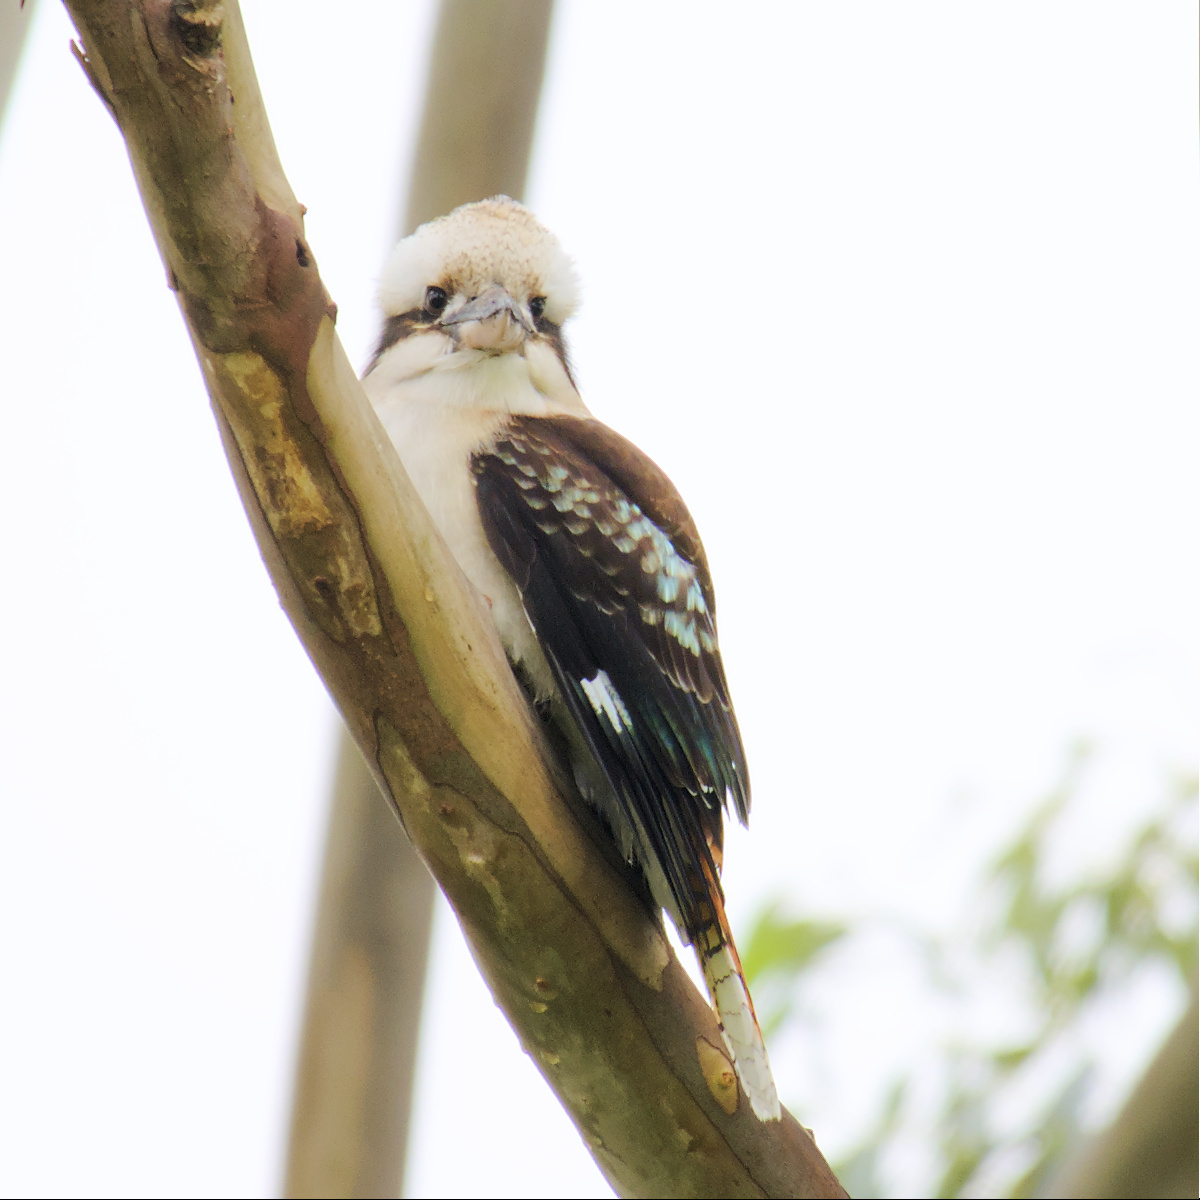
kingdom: Animalia
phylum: Chordata
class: Aves
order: Coraciiformes
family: Alcedinidae
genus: Dacelo
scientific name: Dacelo novaeguineae
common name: Laughing kookaburra
